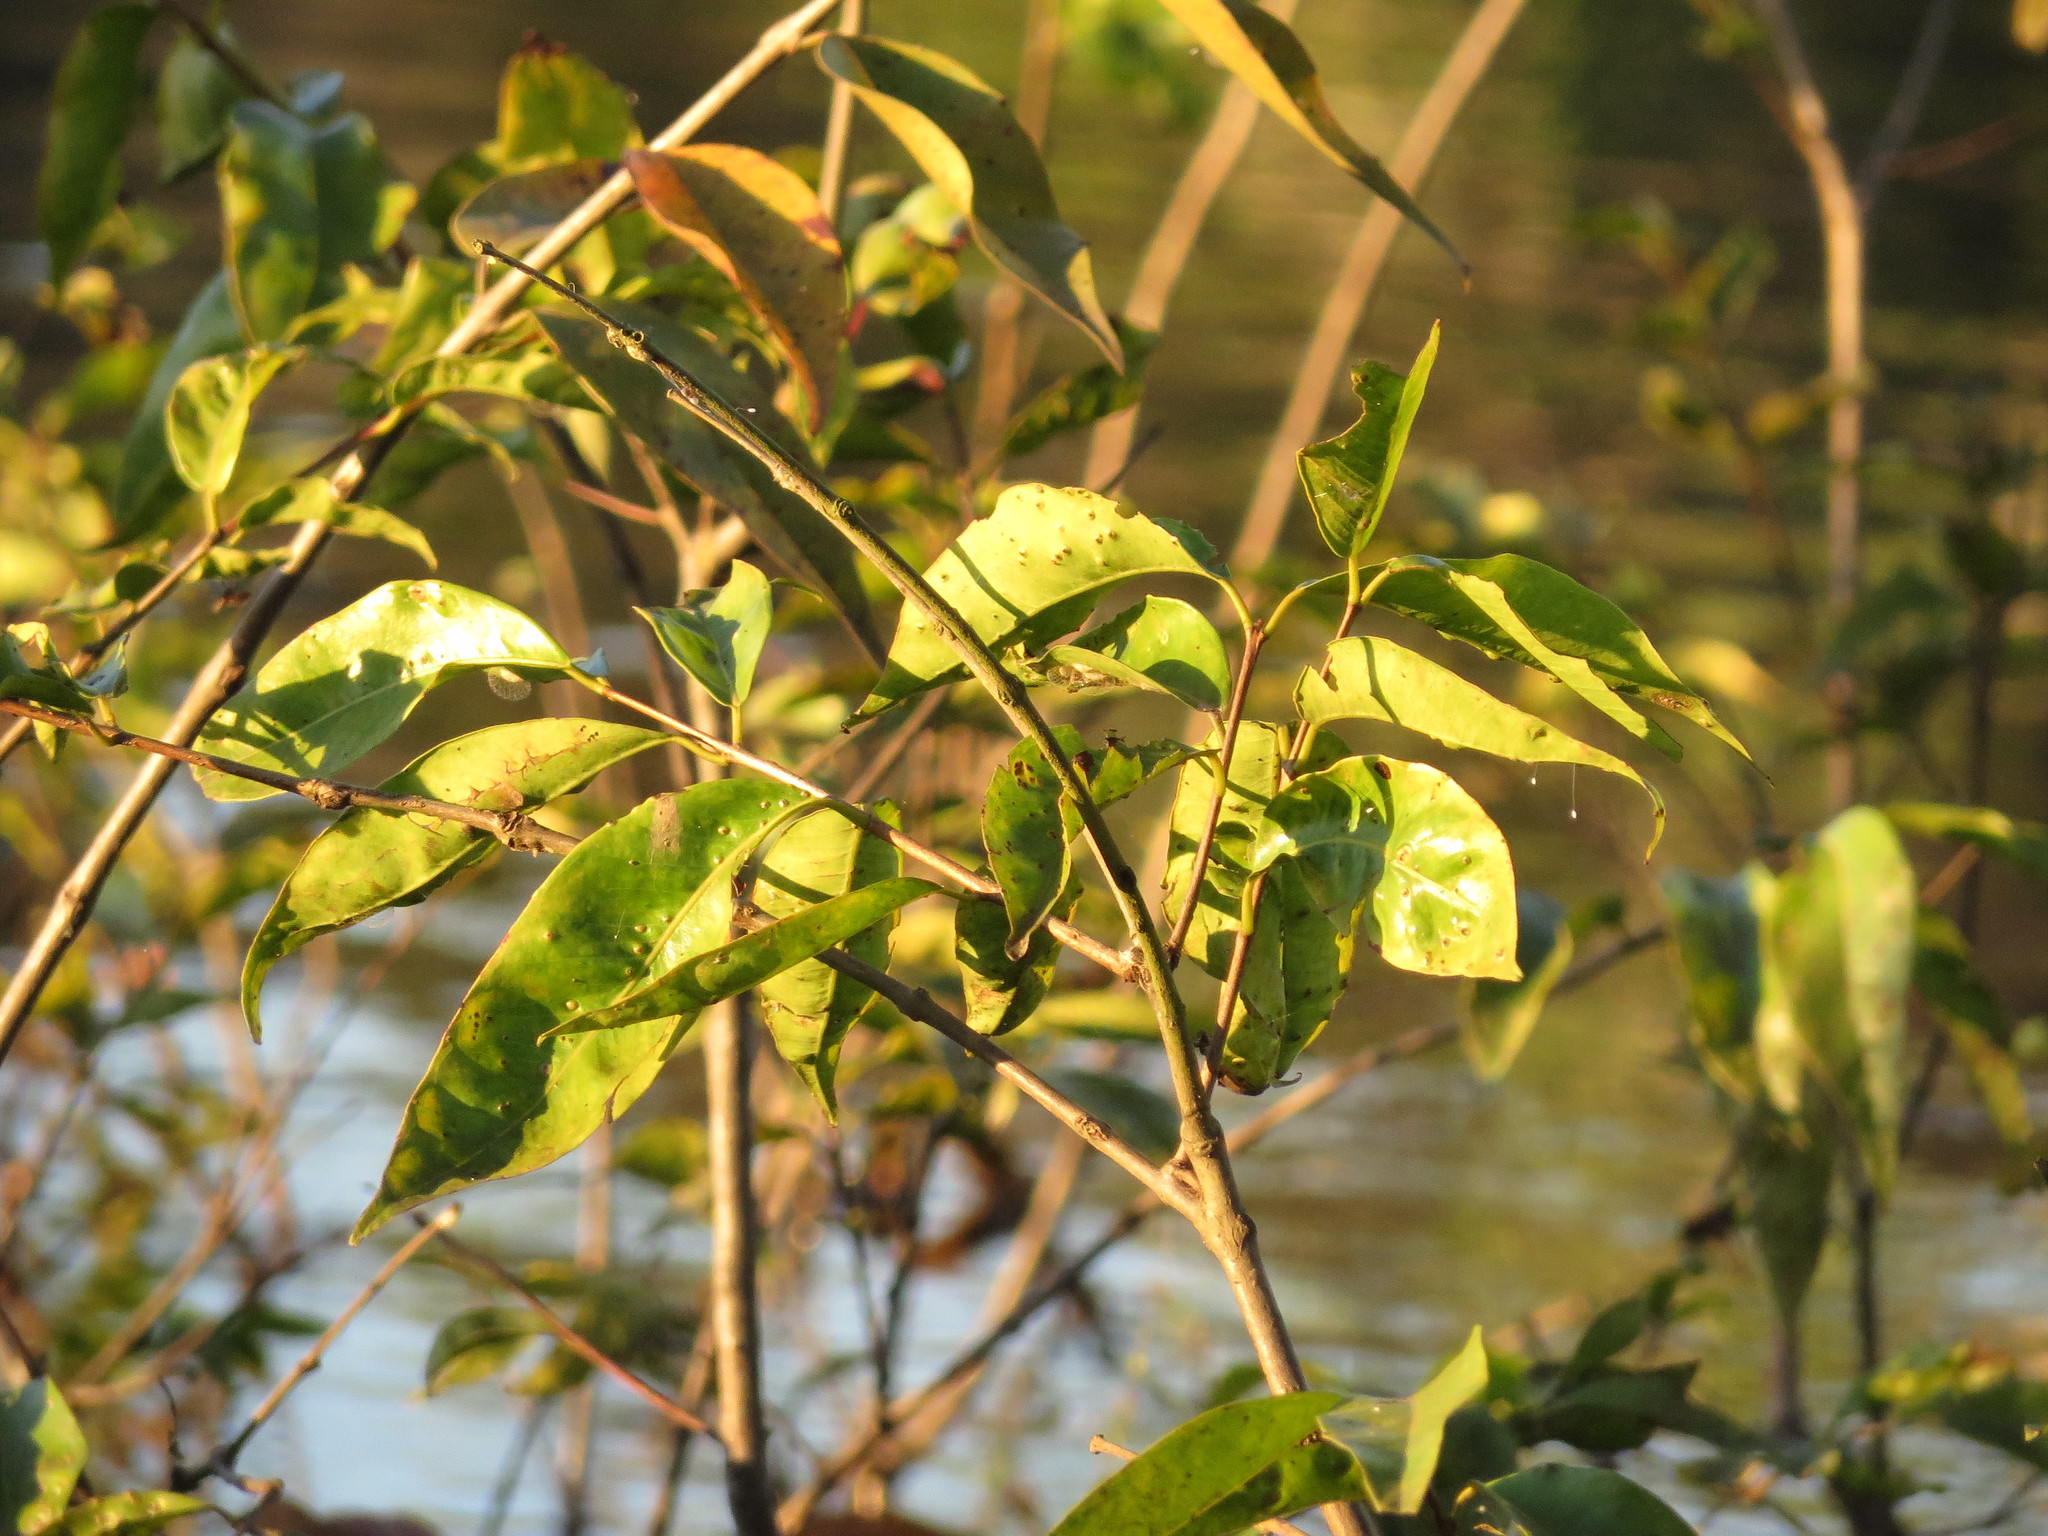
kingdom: Plantae
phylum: Tracheophyta
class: Magnoliopsida
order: Myrtales
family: Myrtaceae
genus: Myrciaria
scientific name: Myrciaria dubia
